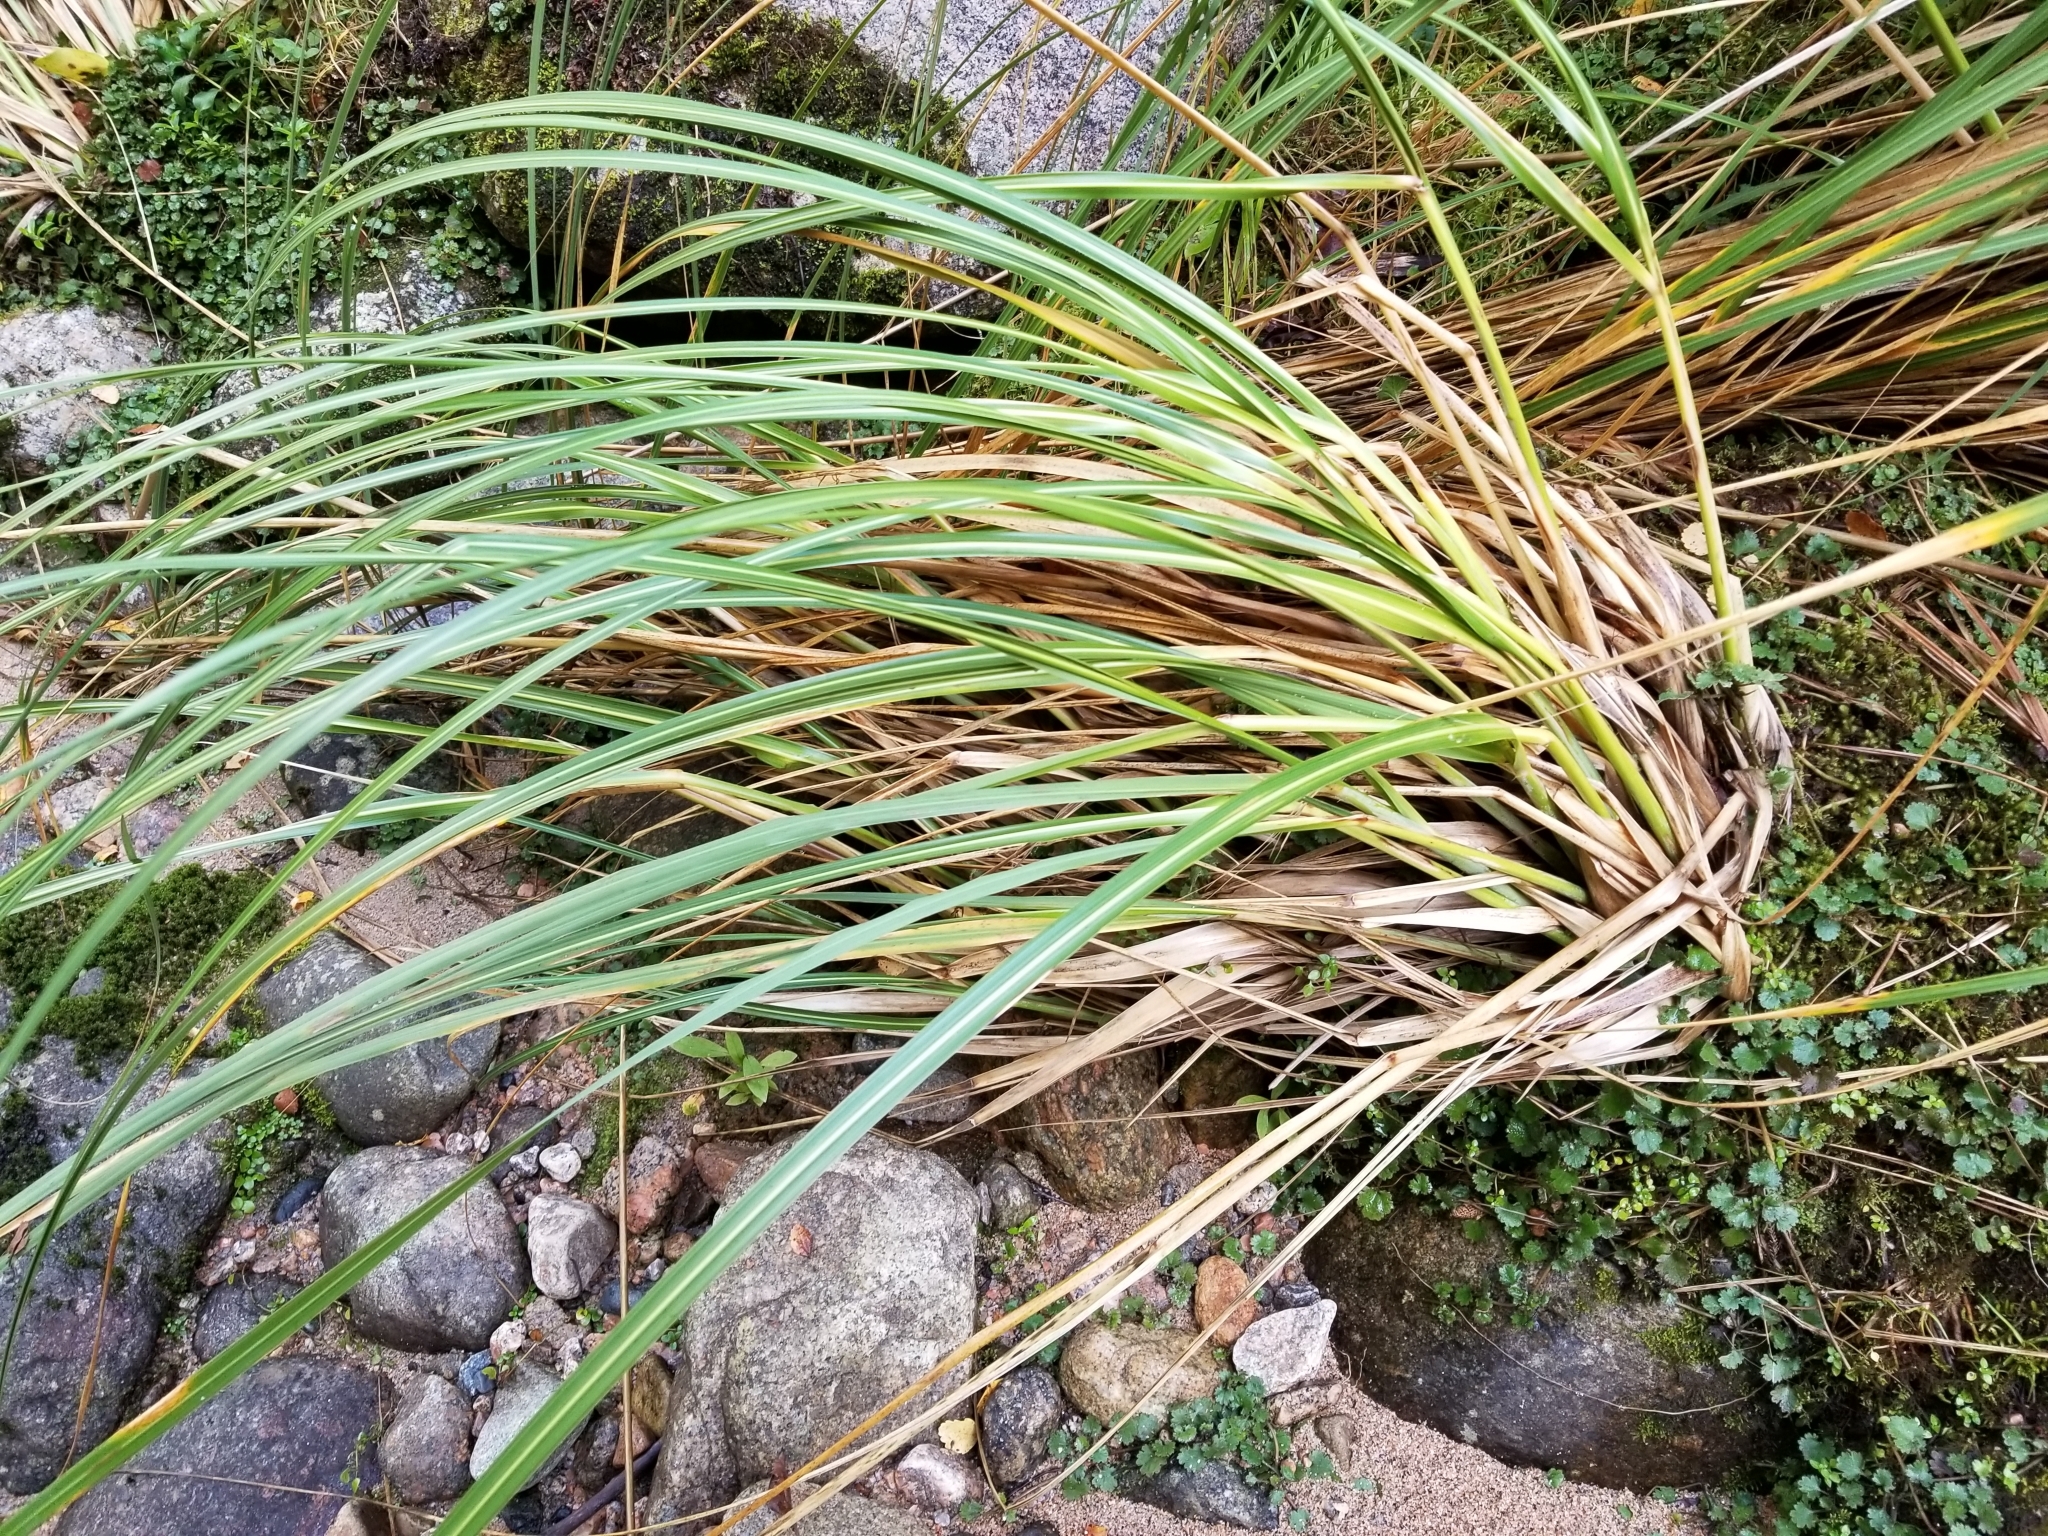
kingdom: Plantae
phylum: Tracheophyta
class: Liliopsida
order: Poales
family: Poaceae
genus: Austroderia
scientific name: Austroderia richardii
